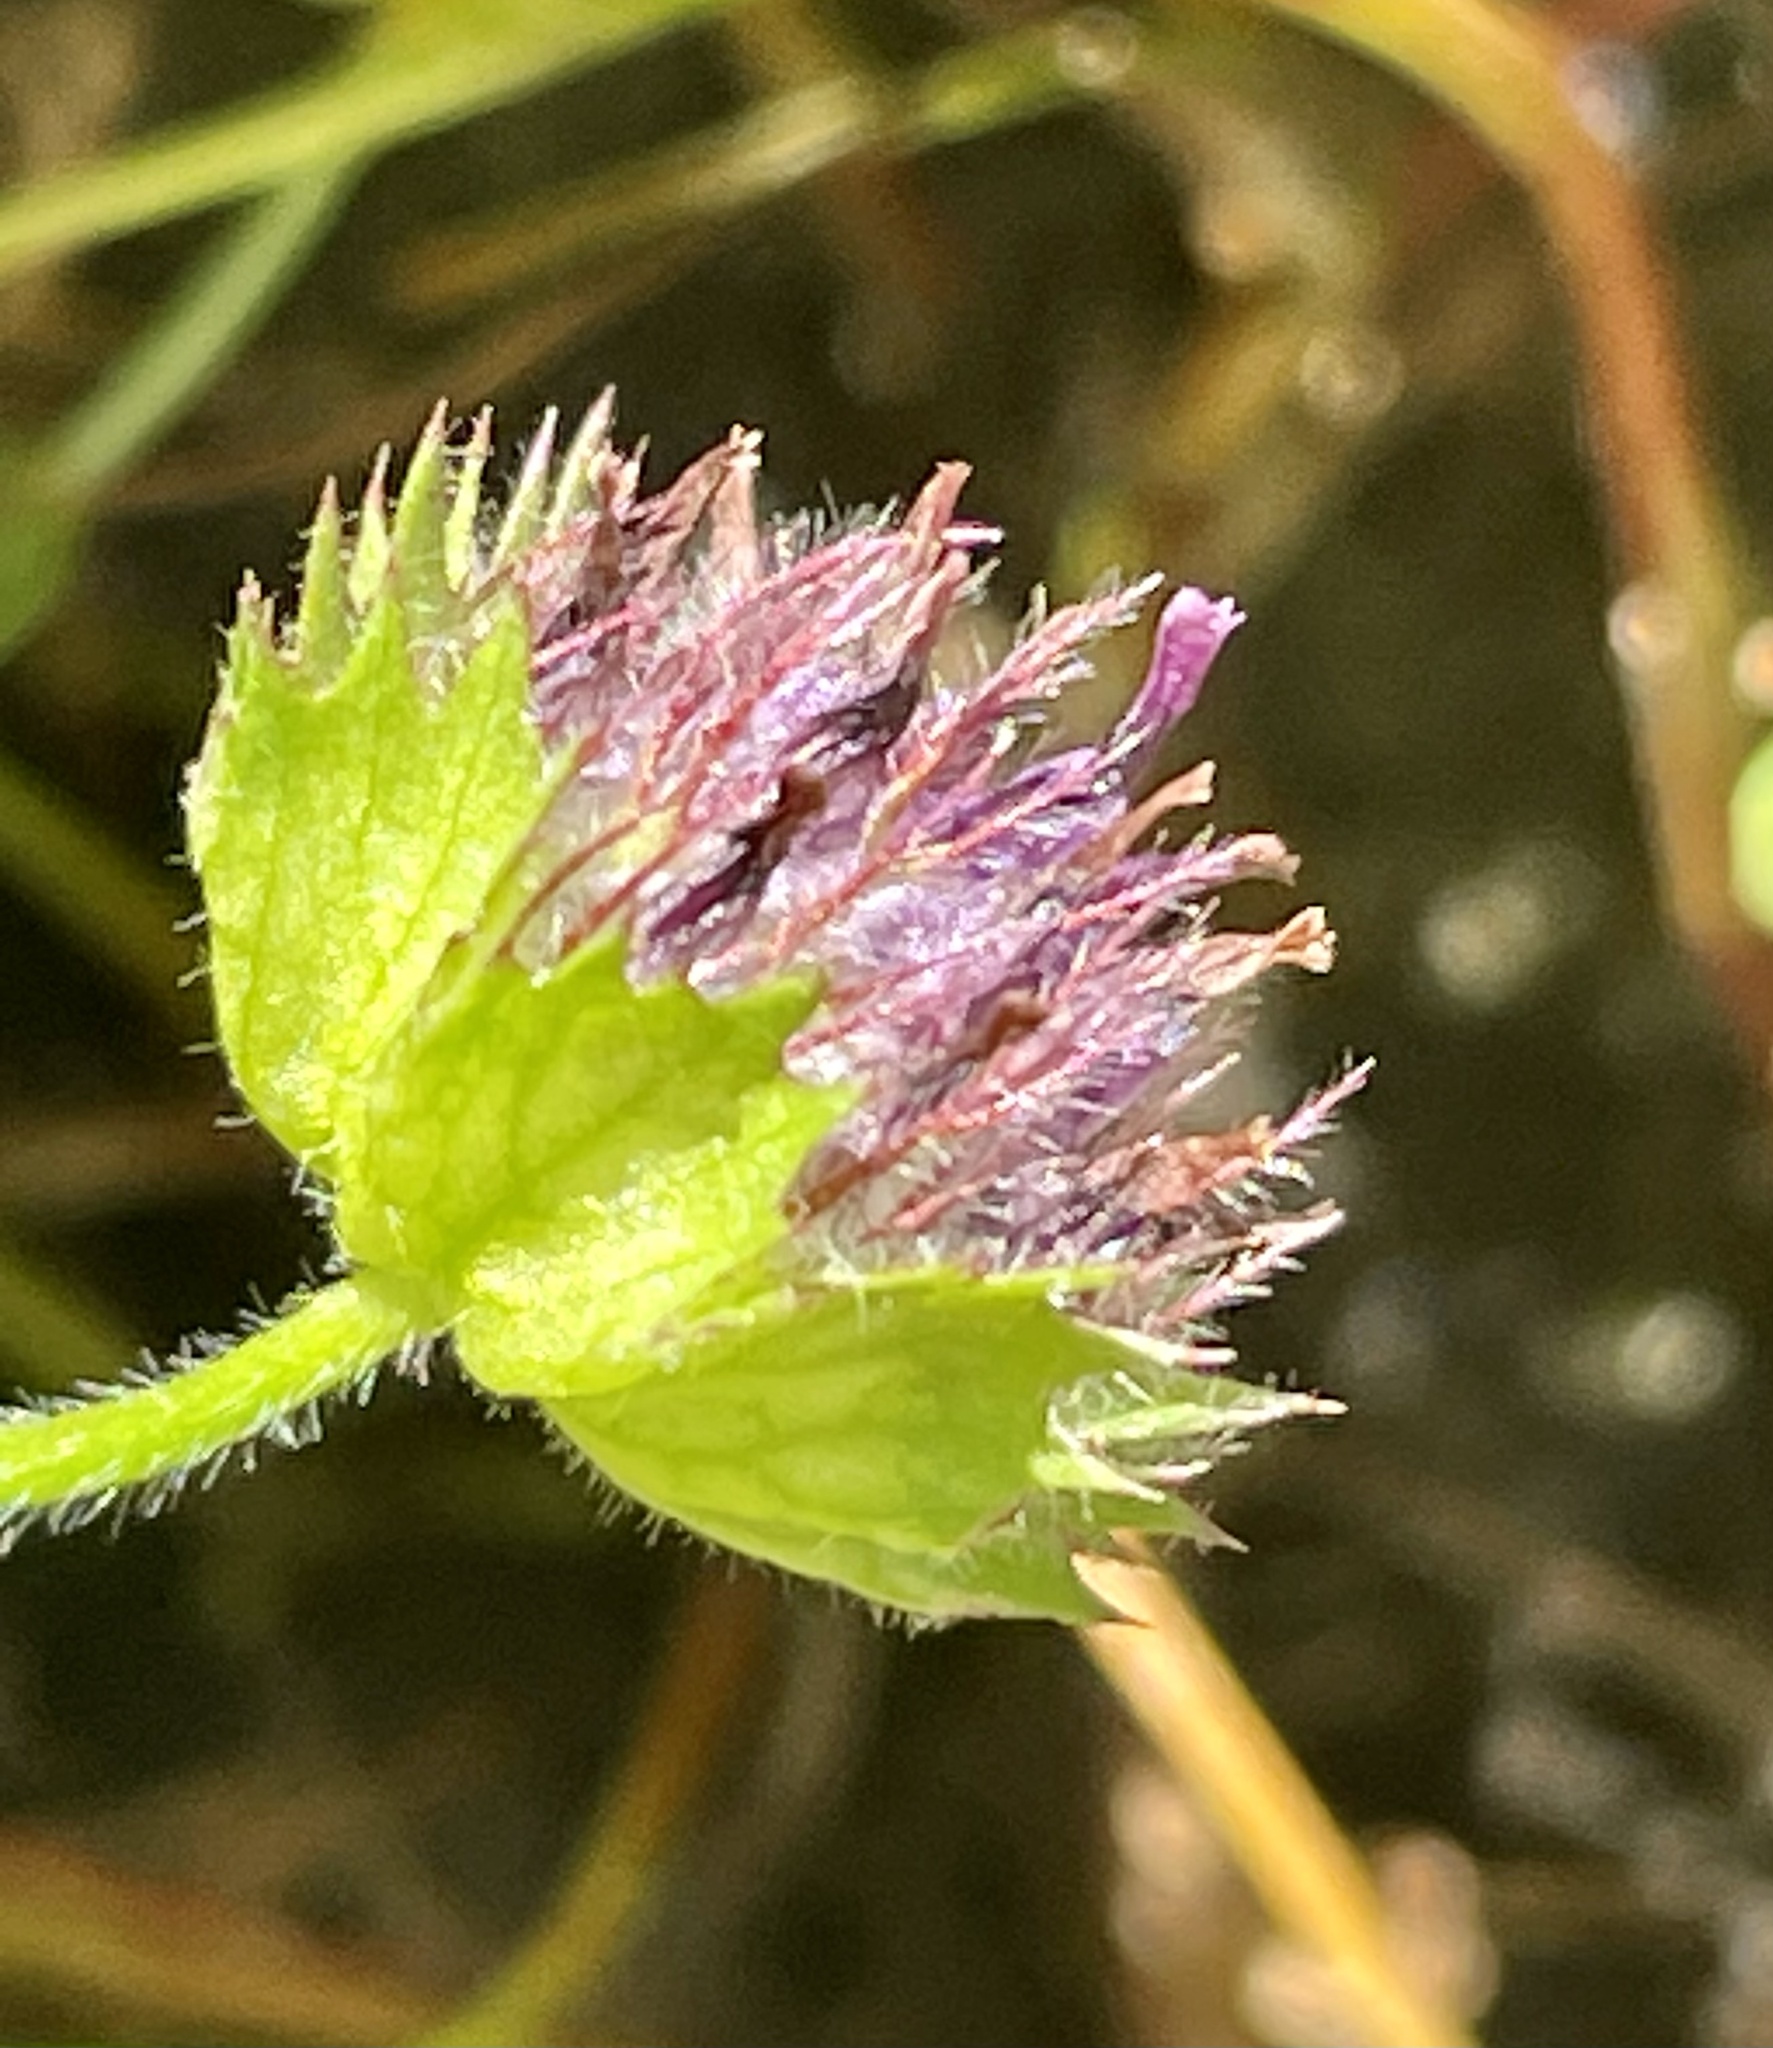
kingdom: Plantae
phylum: Tracheophyta
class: Magnoliopsida
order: Fabales
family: Fabaceae
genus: Trifolium
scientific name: Trifolium barbigerum
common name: Bearded clover
